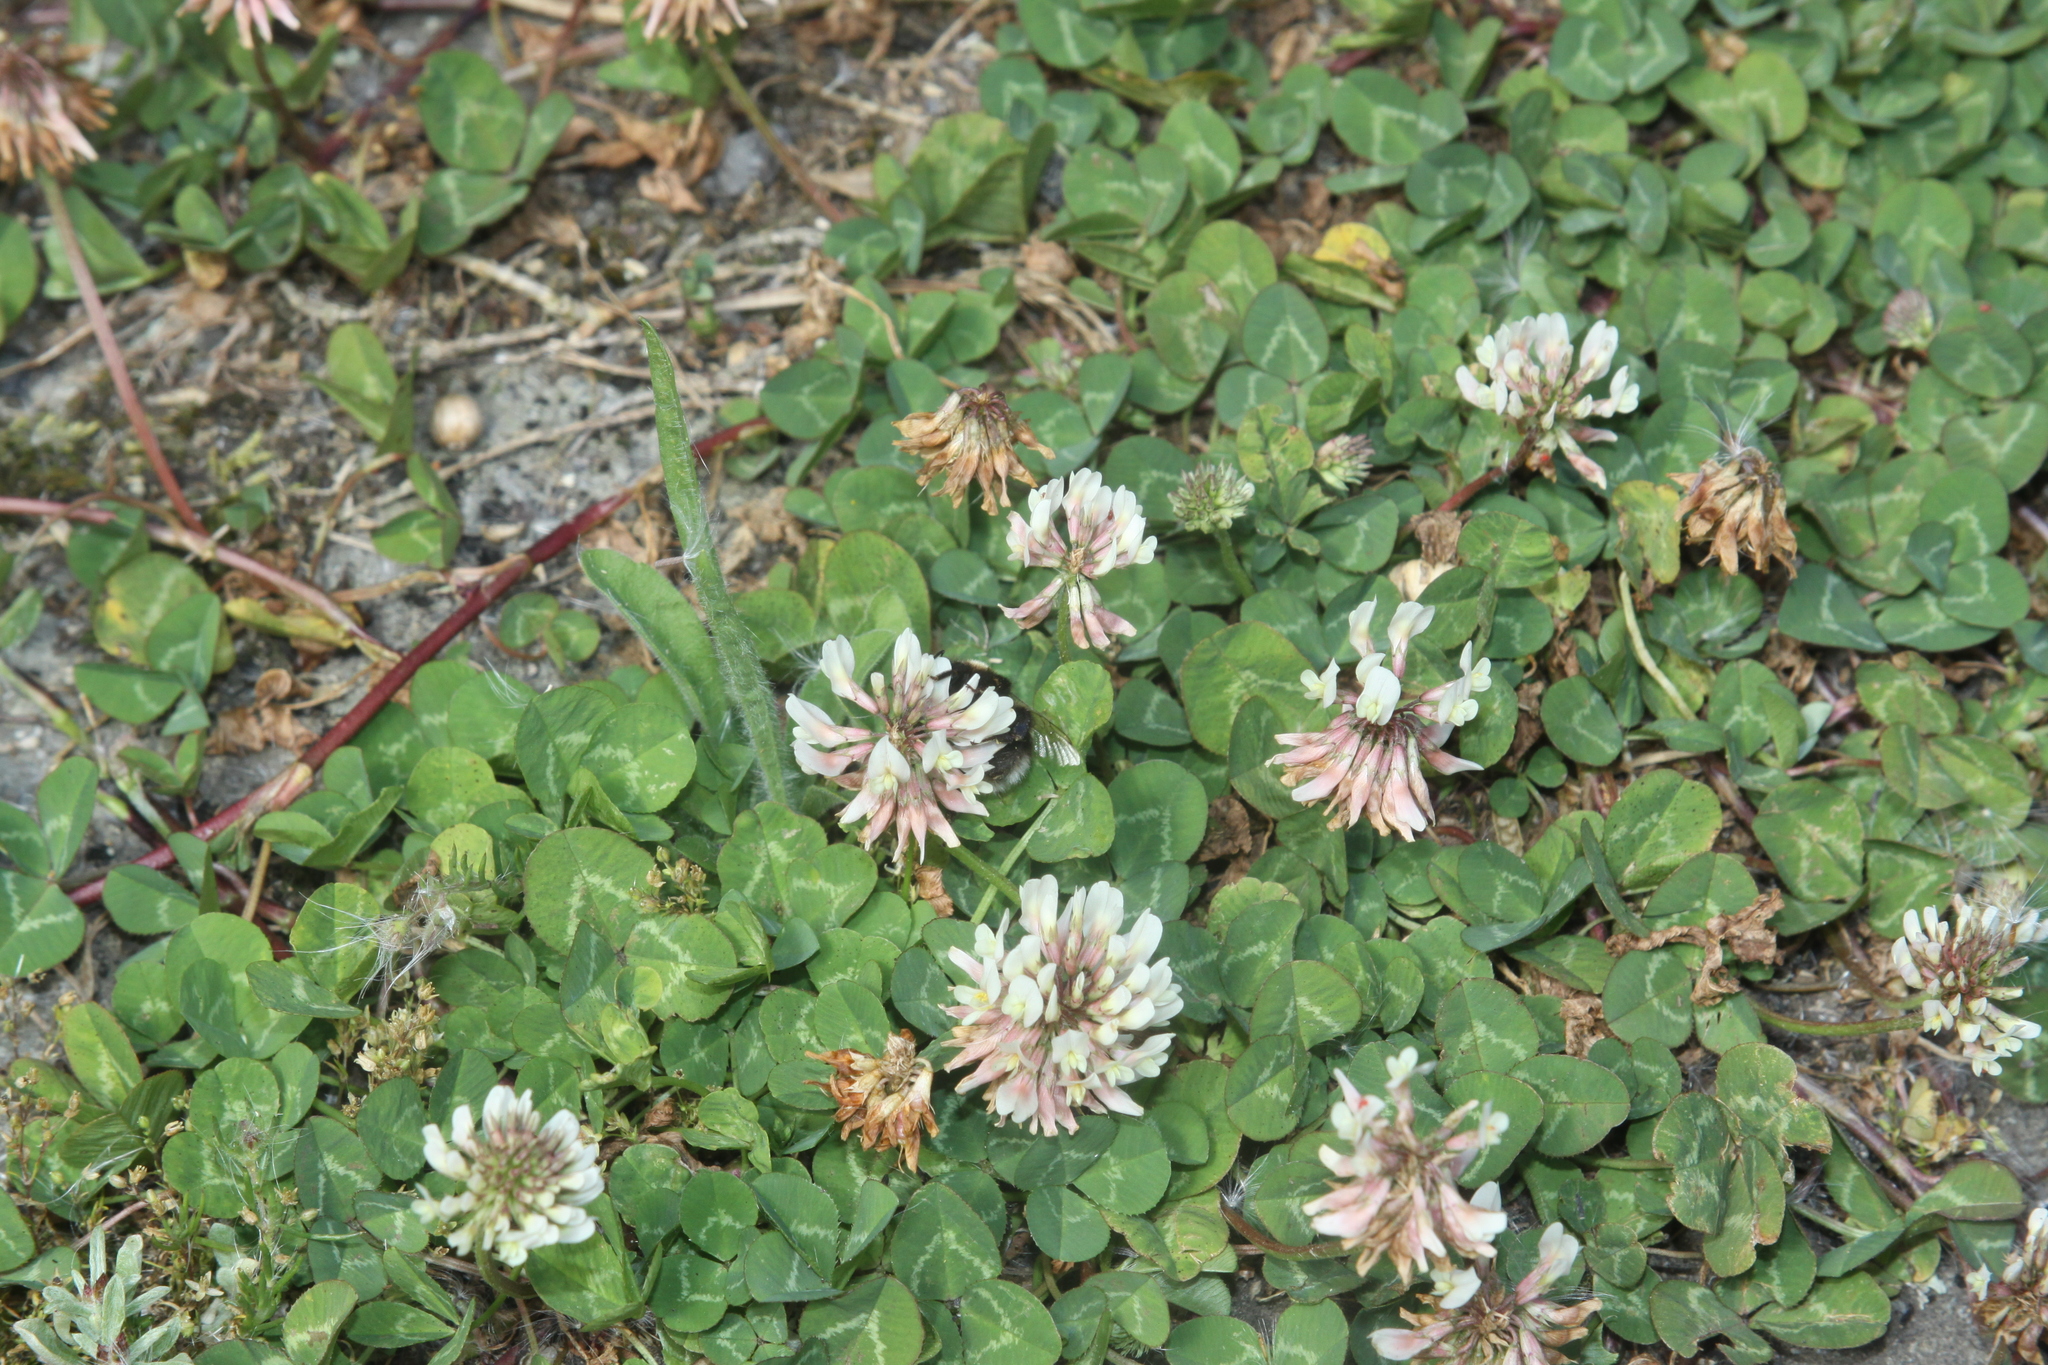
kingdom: Plantae
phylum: Tracheophyta
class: Magnoliopsida
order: Fabales
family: Fabaceae
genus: Trifolium
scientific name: Trifolium repens
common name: White clover
